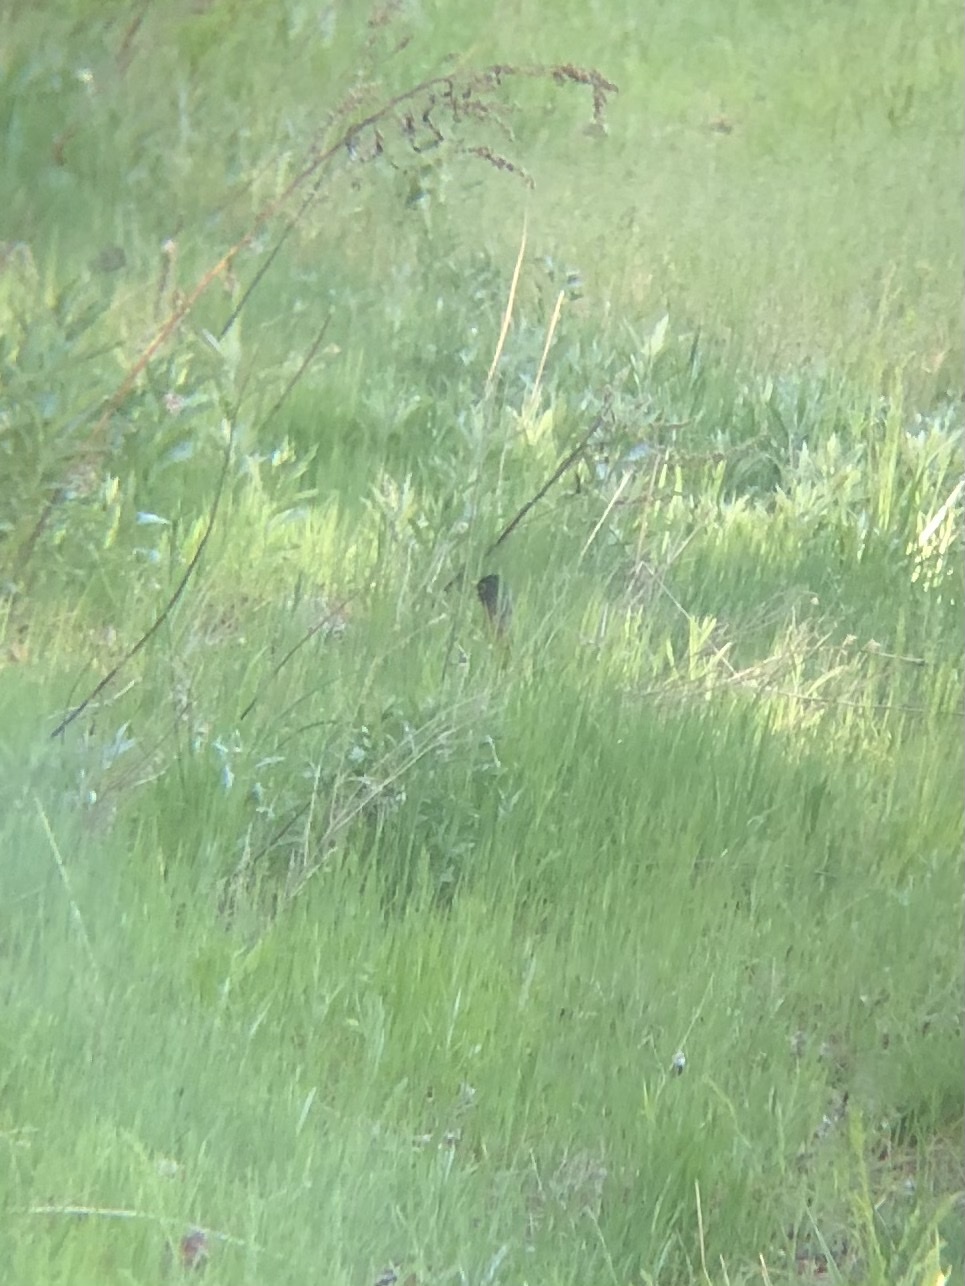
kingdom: Animalia
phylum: Chordata
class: Aves
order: Passeriformes
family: Turdidae
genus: Turdus
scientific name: Turdus migratorius
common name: American robin
